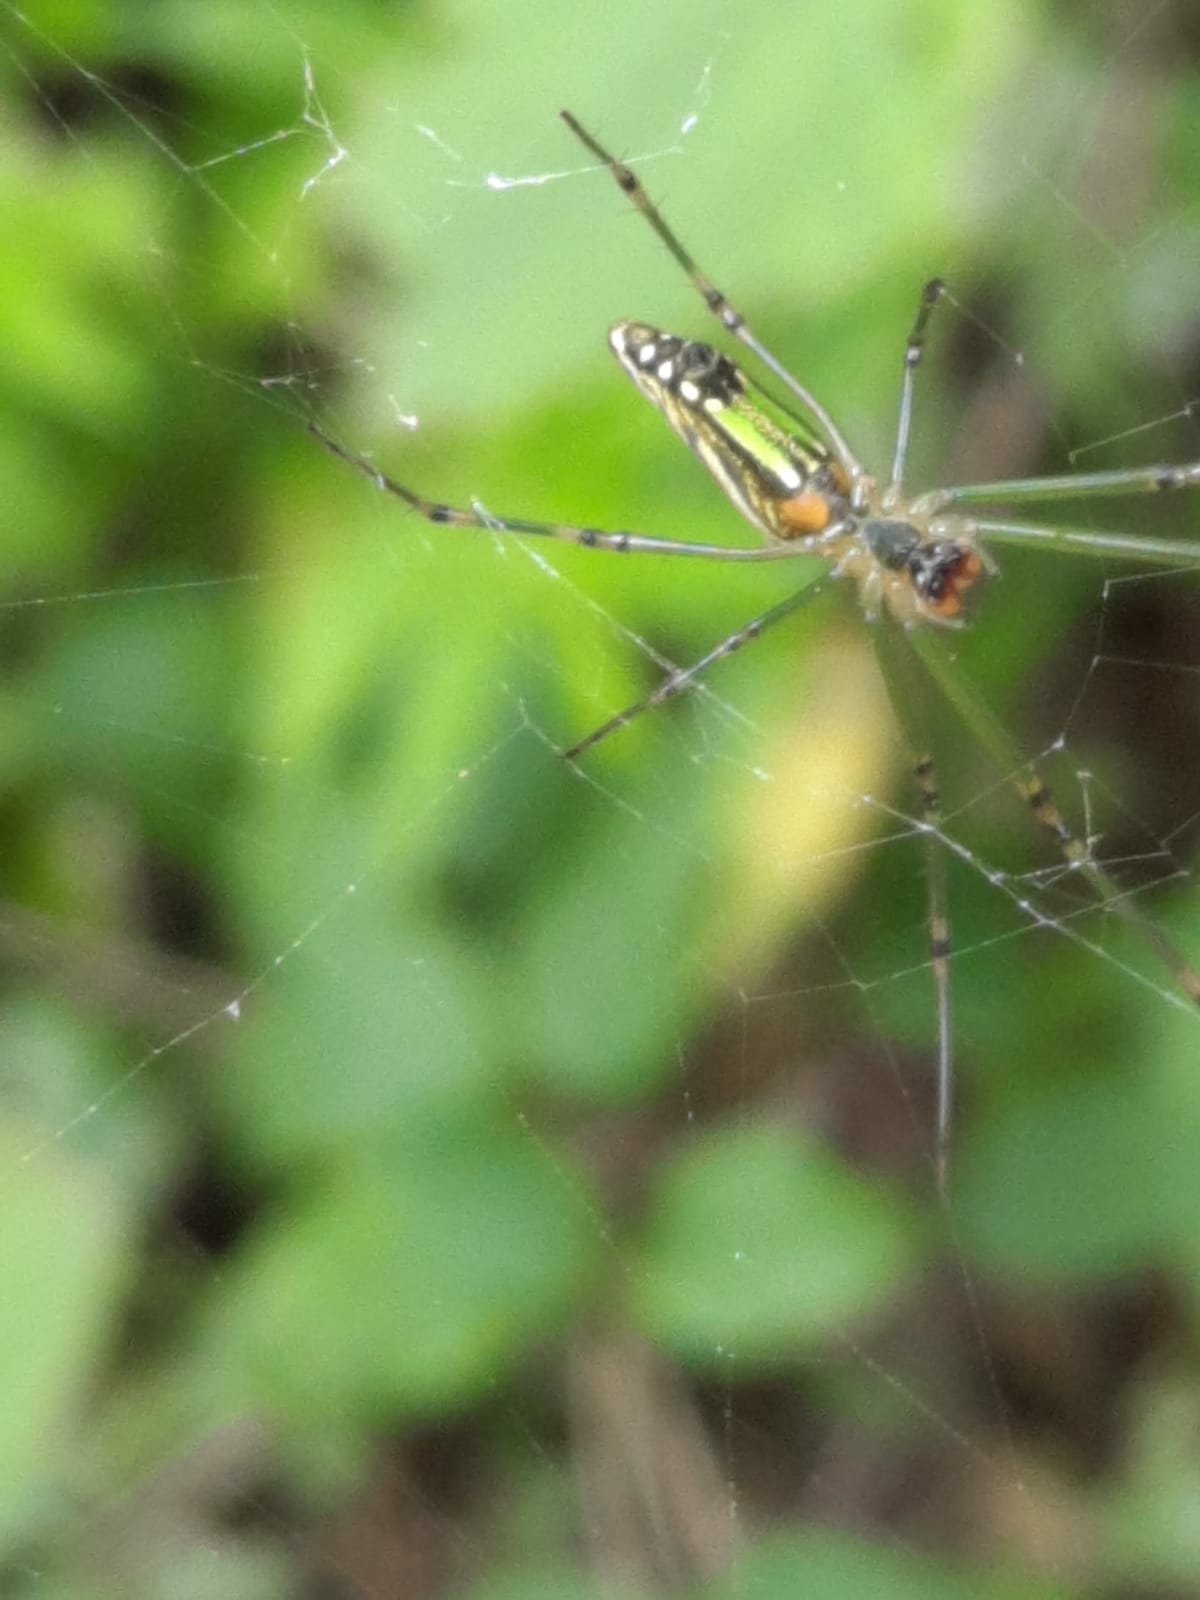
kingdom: Animalia
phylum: Arthropoda
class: Arachnida
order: Araneae
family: Tetragnathidae
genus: Leucauge
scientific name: Leucauge decorata
